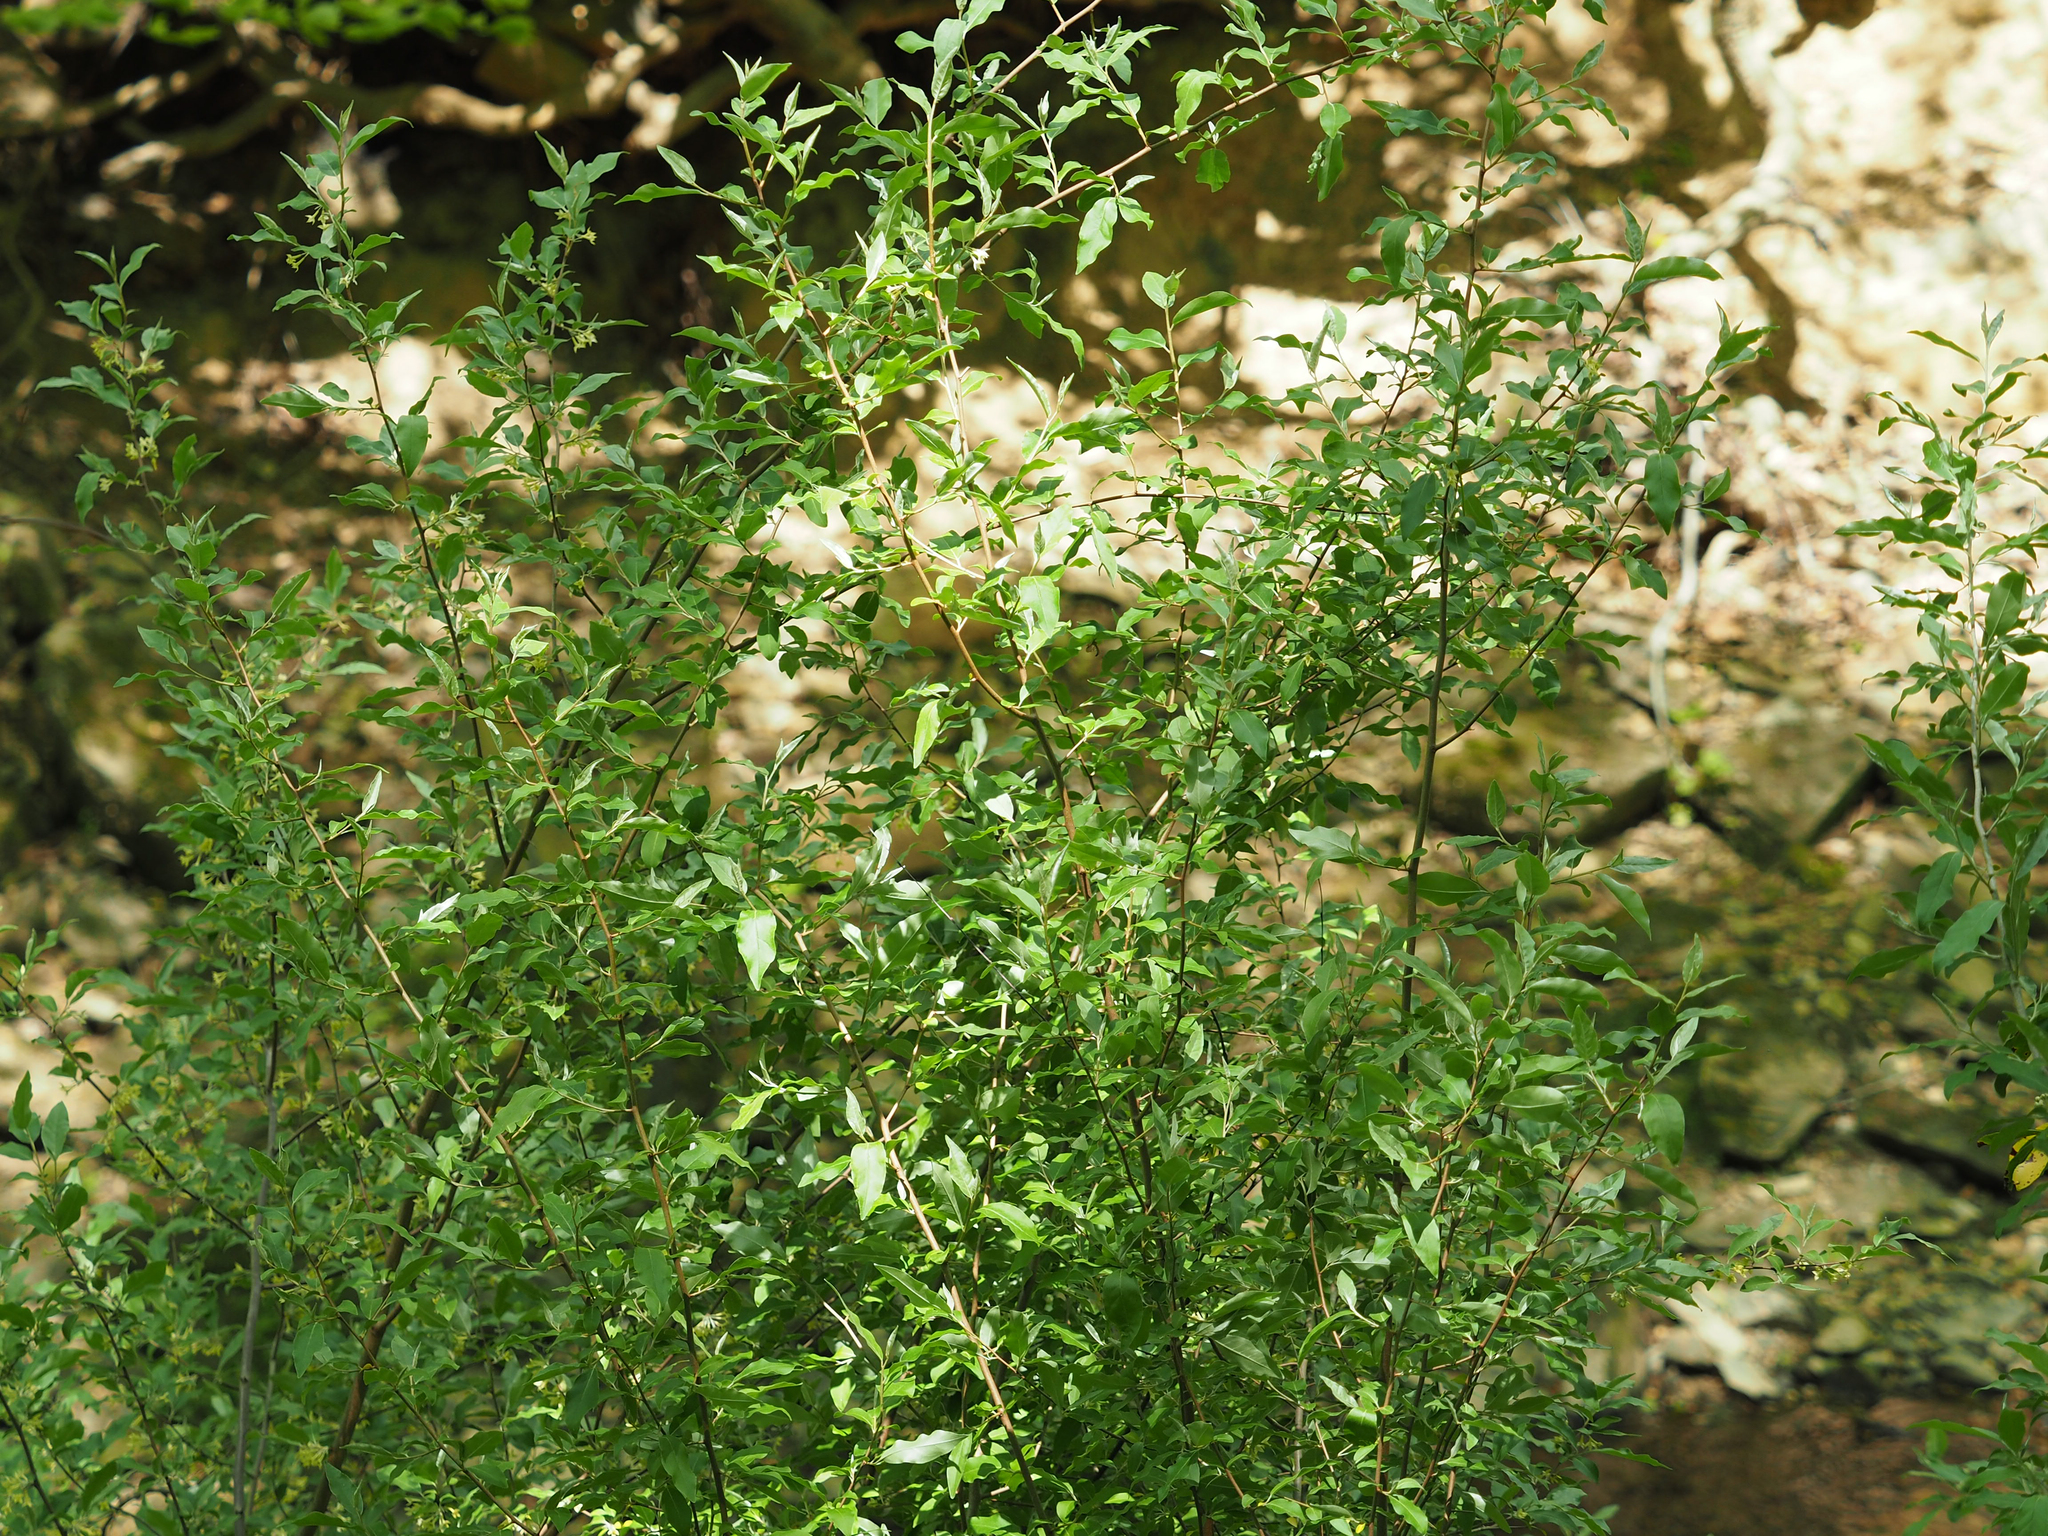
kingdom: Plantae
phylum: Tracheophyta
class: Magnoliopsida
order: Rosales
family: Elaeagnaceae
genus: Elaeagnus
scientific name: Elaeagnus umbellata
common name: Autumn olive
